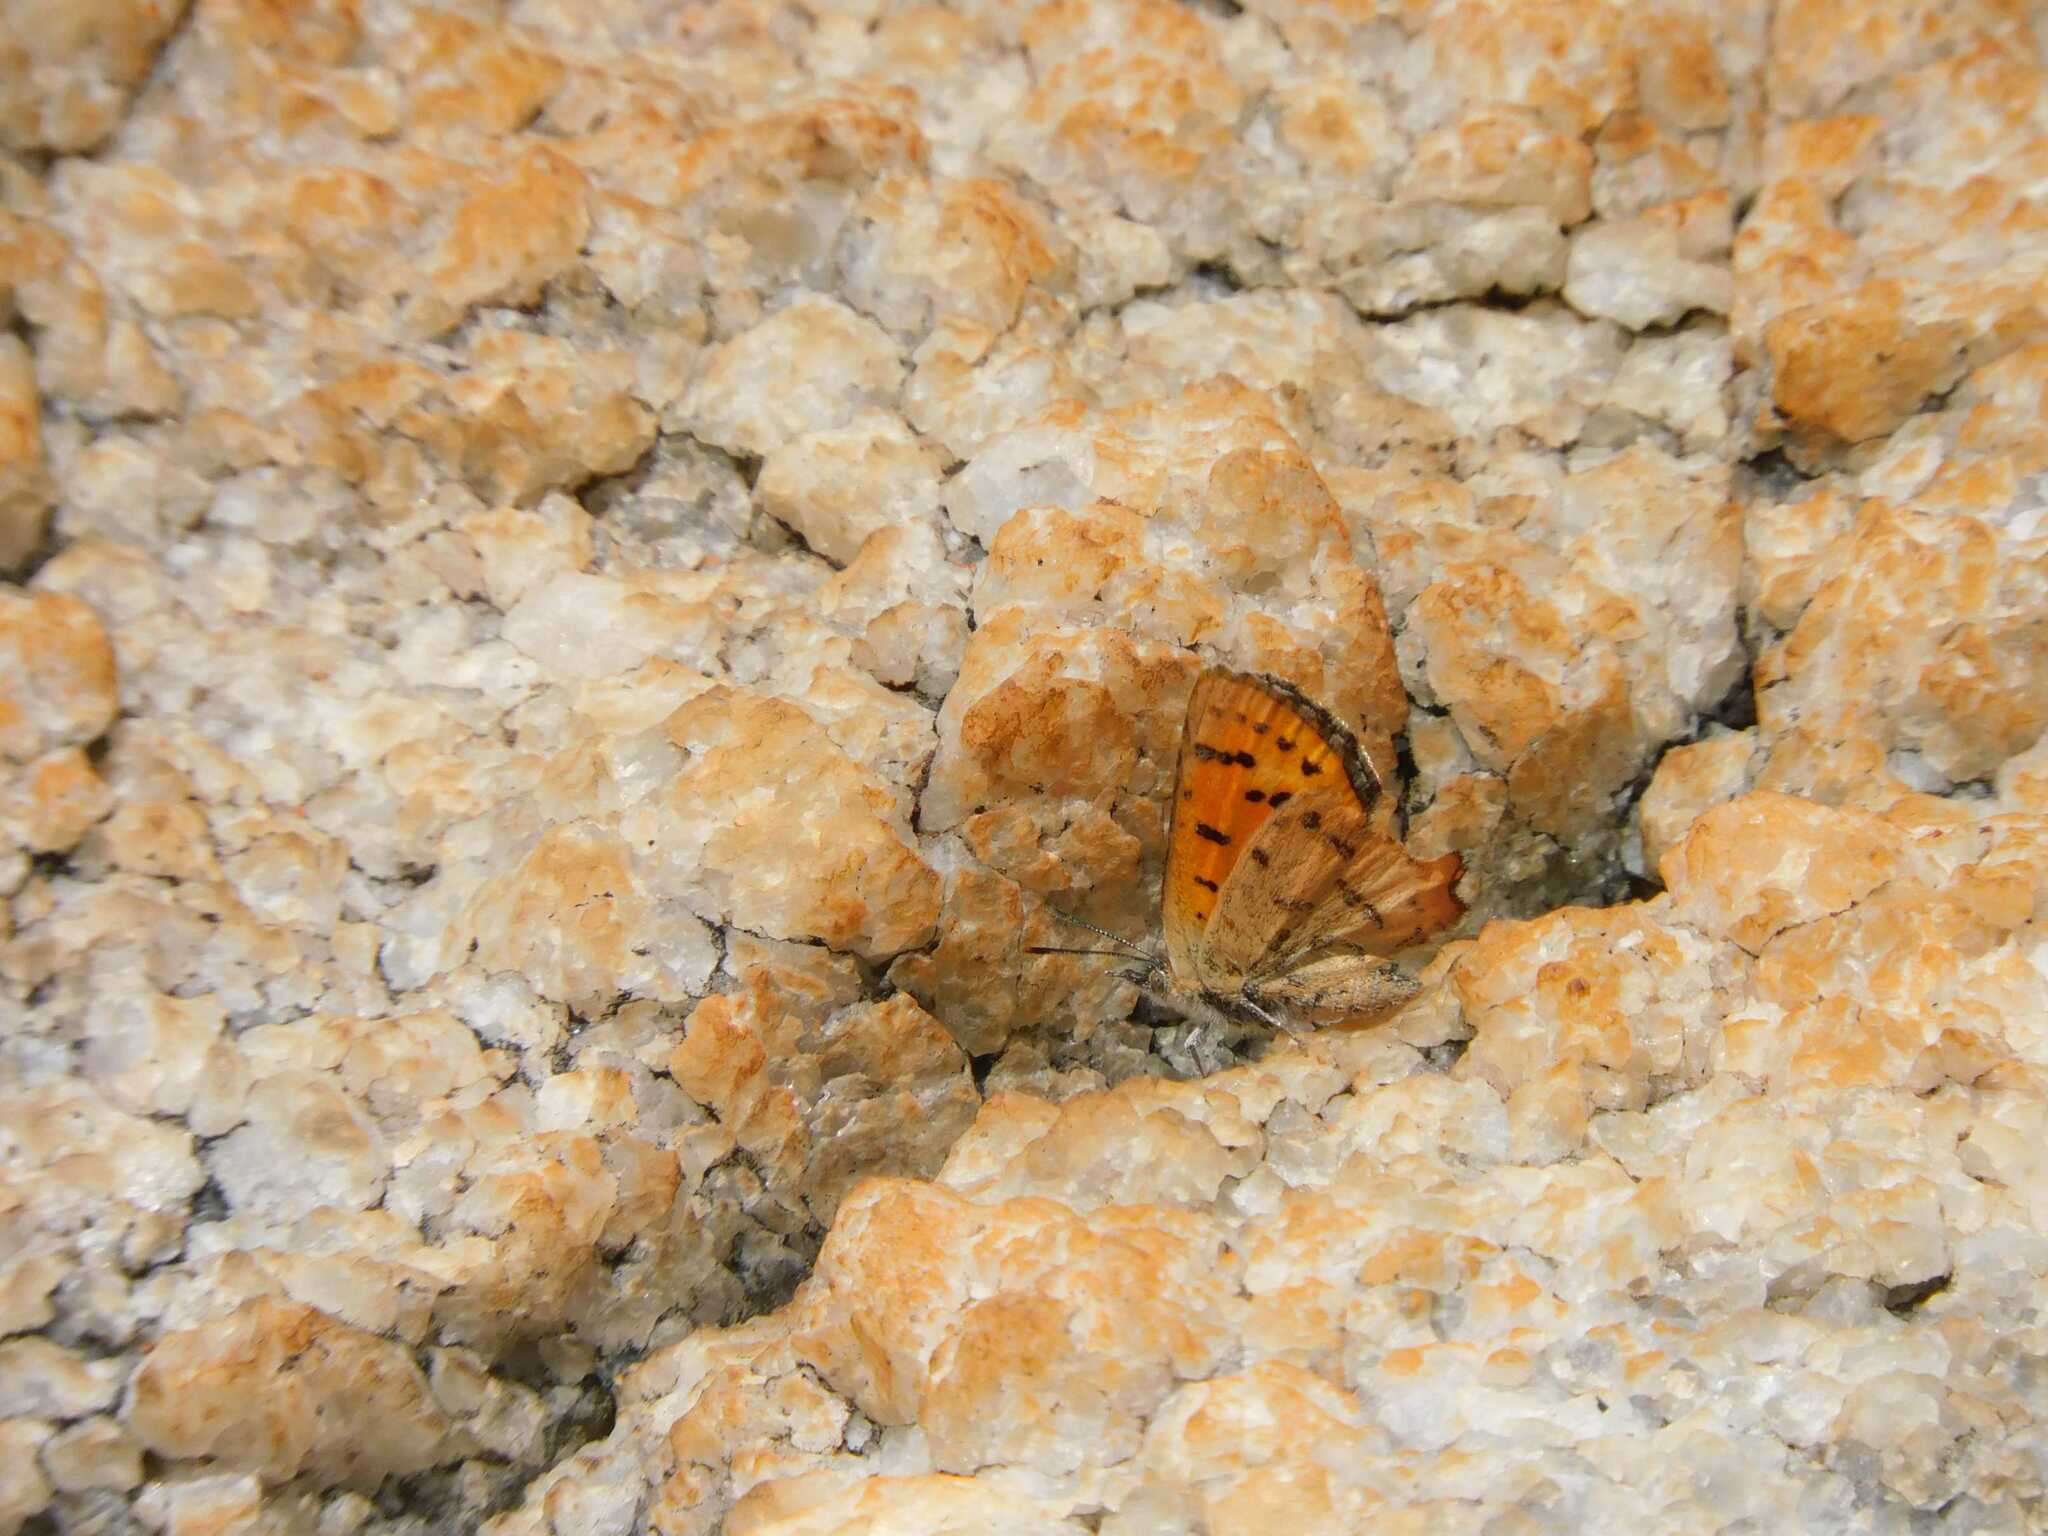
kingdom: Animalia
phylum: Arthropoda
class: Insecta
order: Lepidoptera
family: Lycaenidae
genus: Zeritis
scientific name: Zeritis aethon
